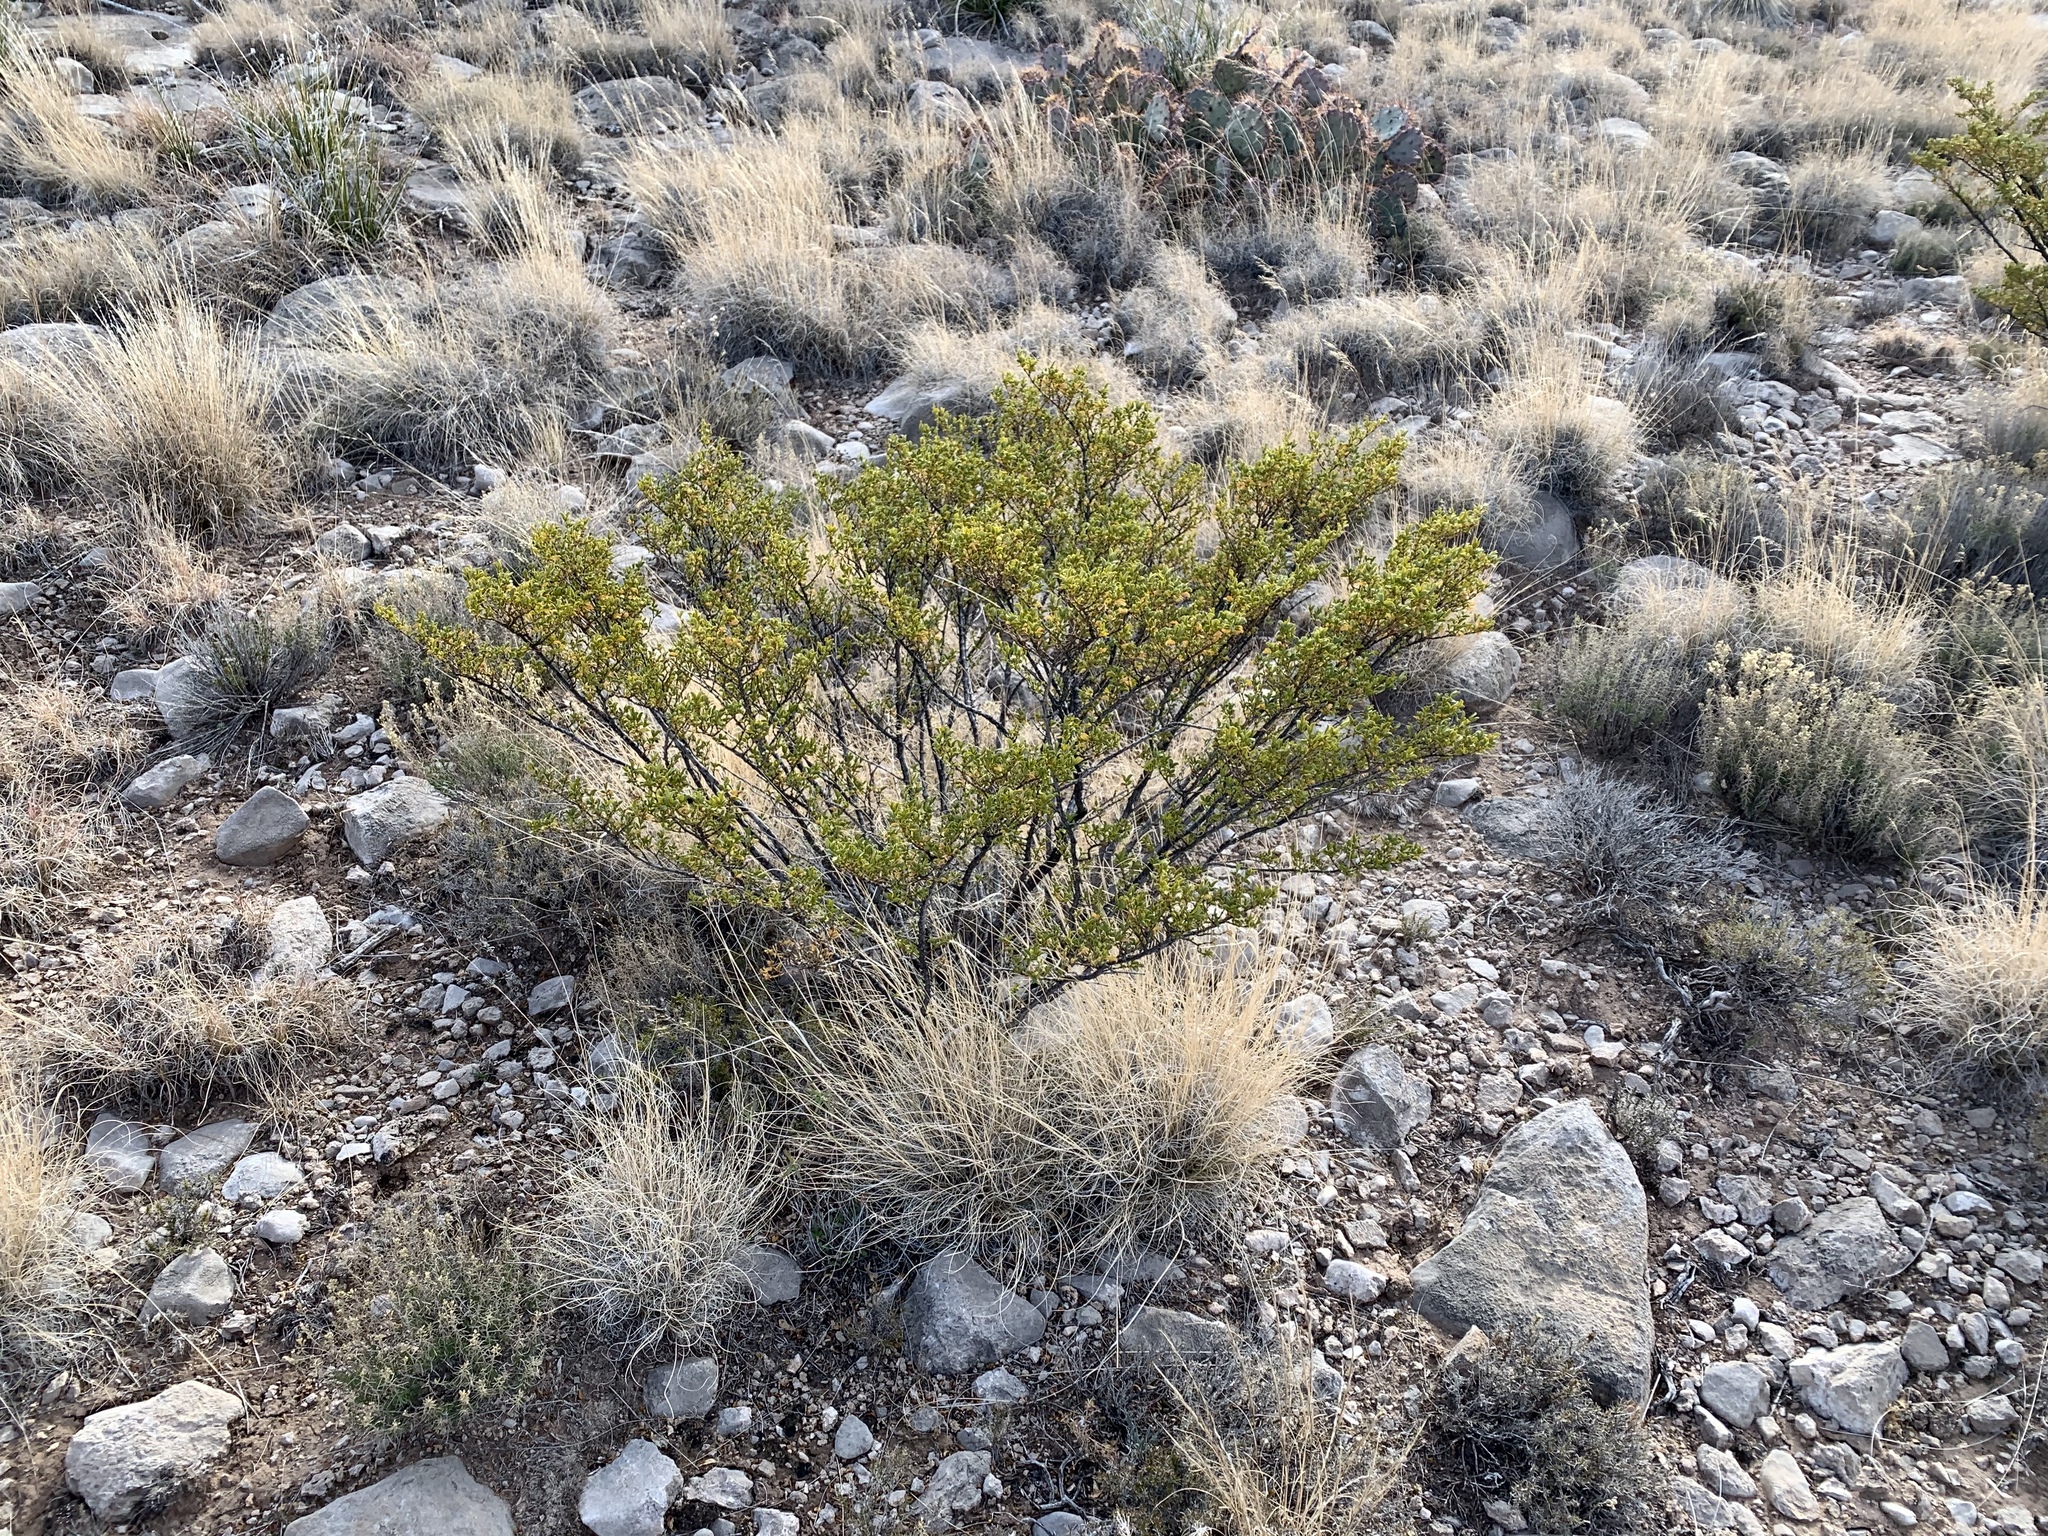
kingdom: Plantae
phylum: Tracheophyta
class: Magnoliopsida
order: Zygophyllales
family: Zygophyllaceae
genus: Larrea
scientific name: Larrea tridentata
